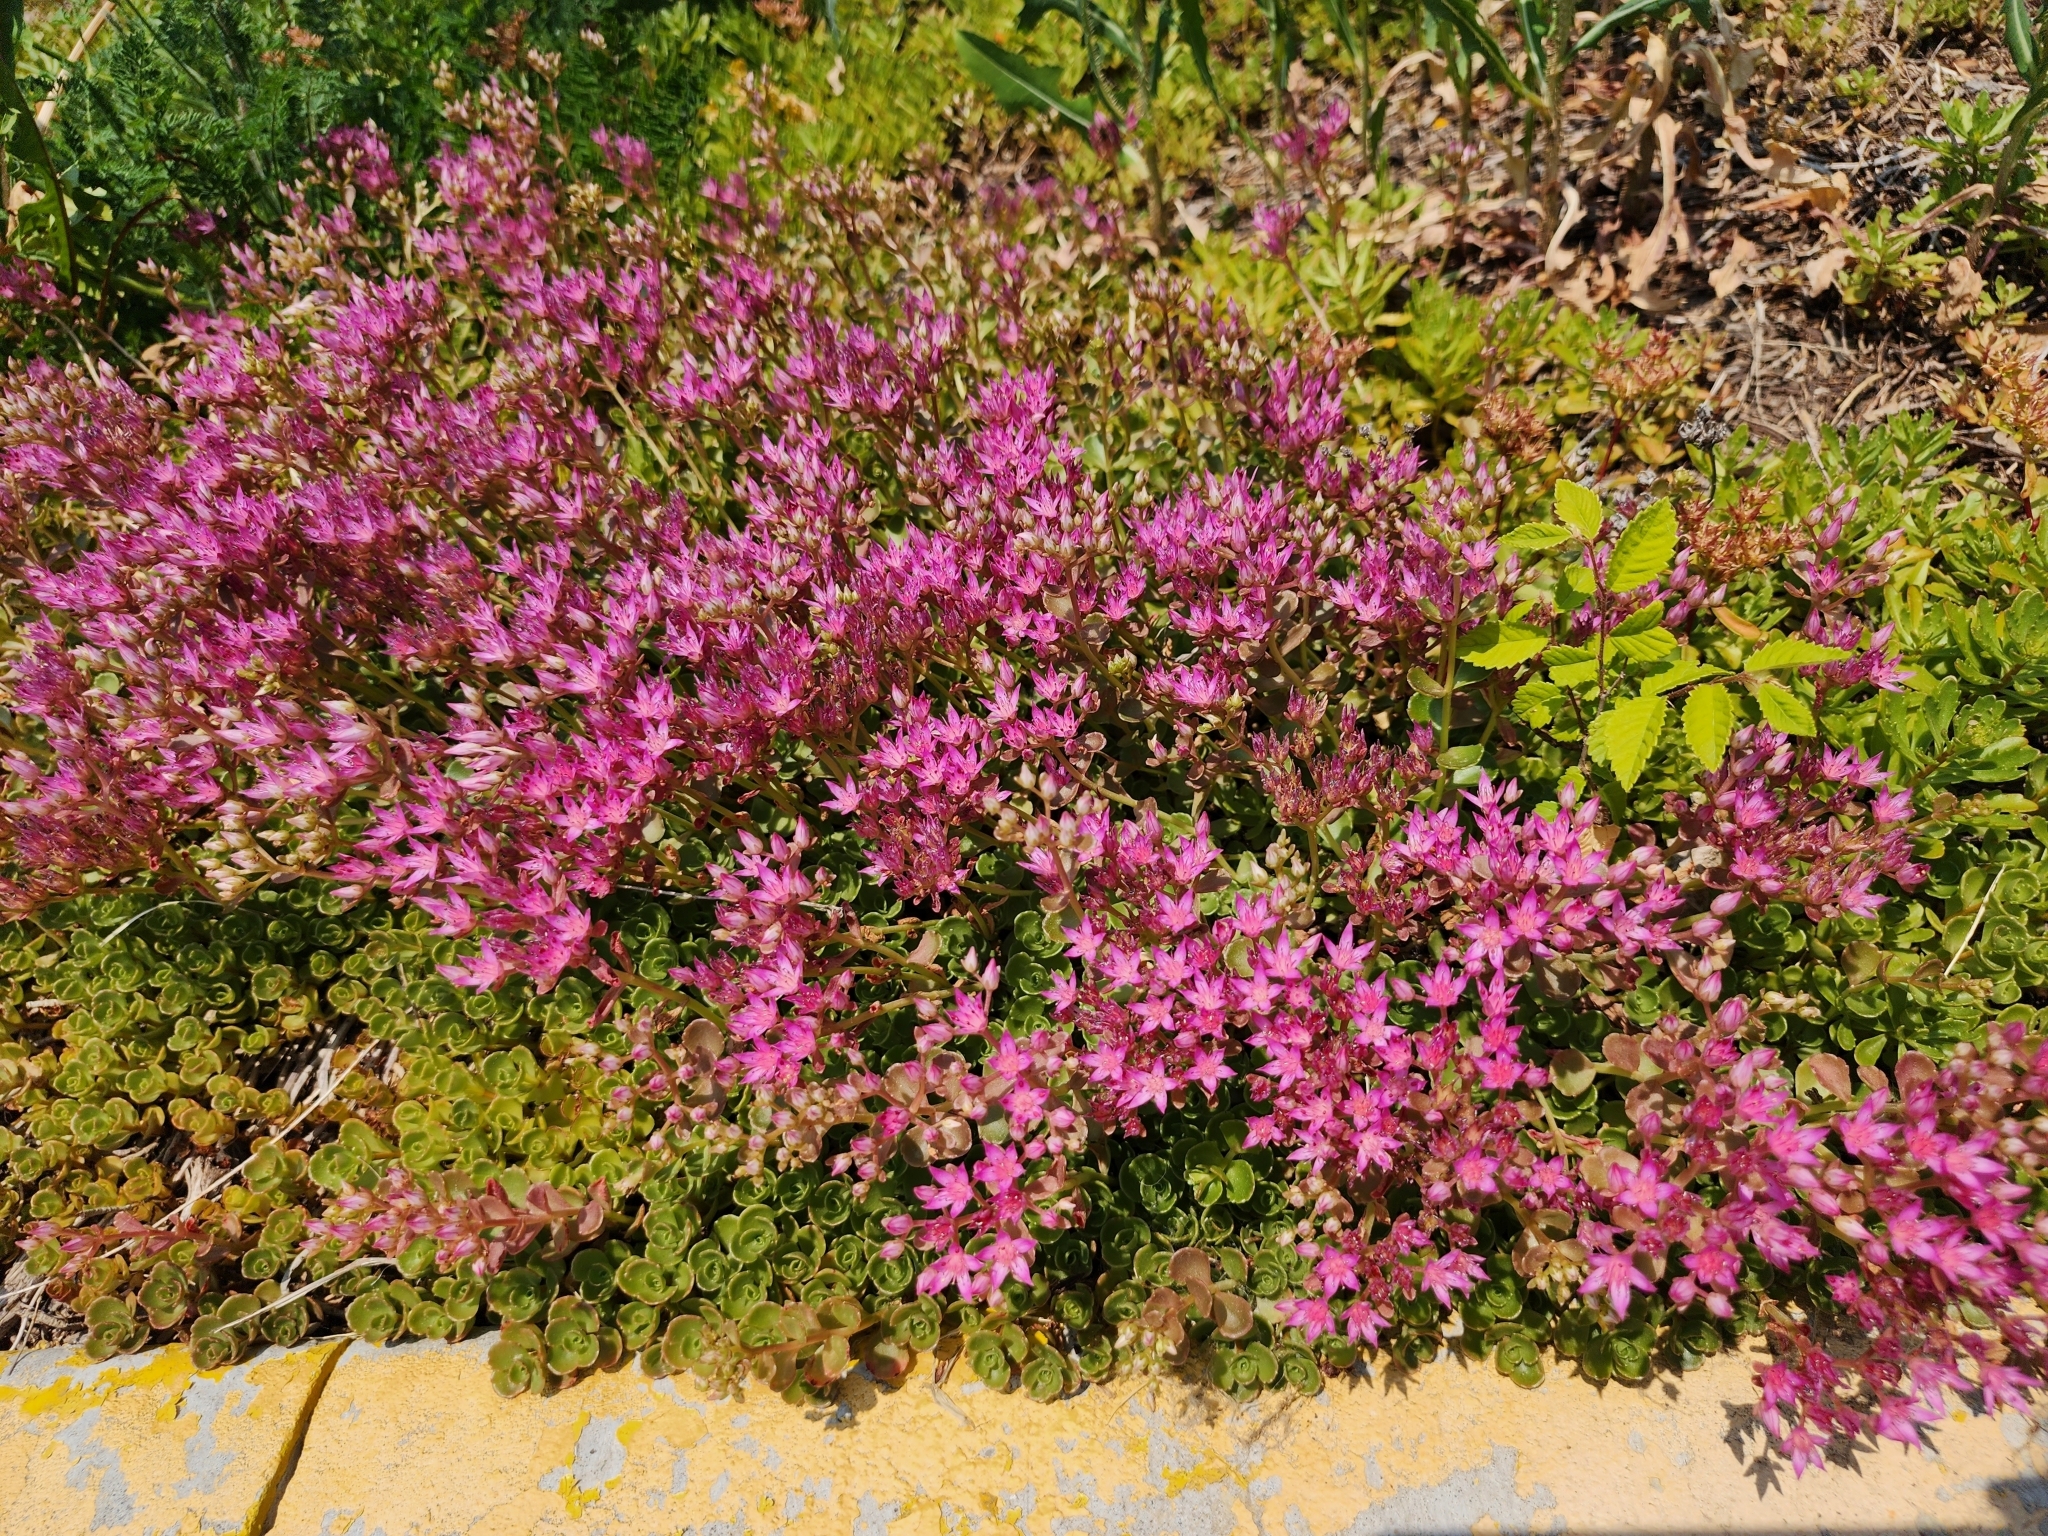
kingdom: Plantae
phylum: Tracheophyta
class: Magnoliopsida
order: Saxifragales
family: Crassulaceae
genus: Phedimus
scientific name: Phedimus spurius
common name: Caucasian stonecrop
